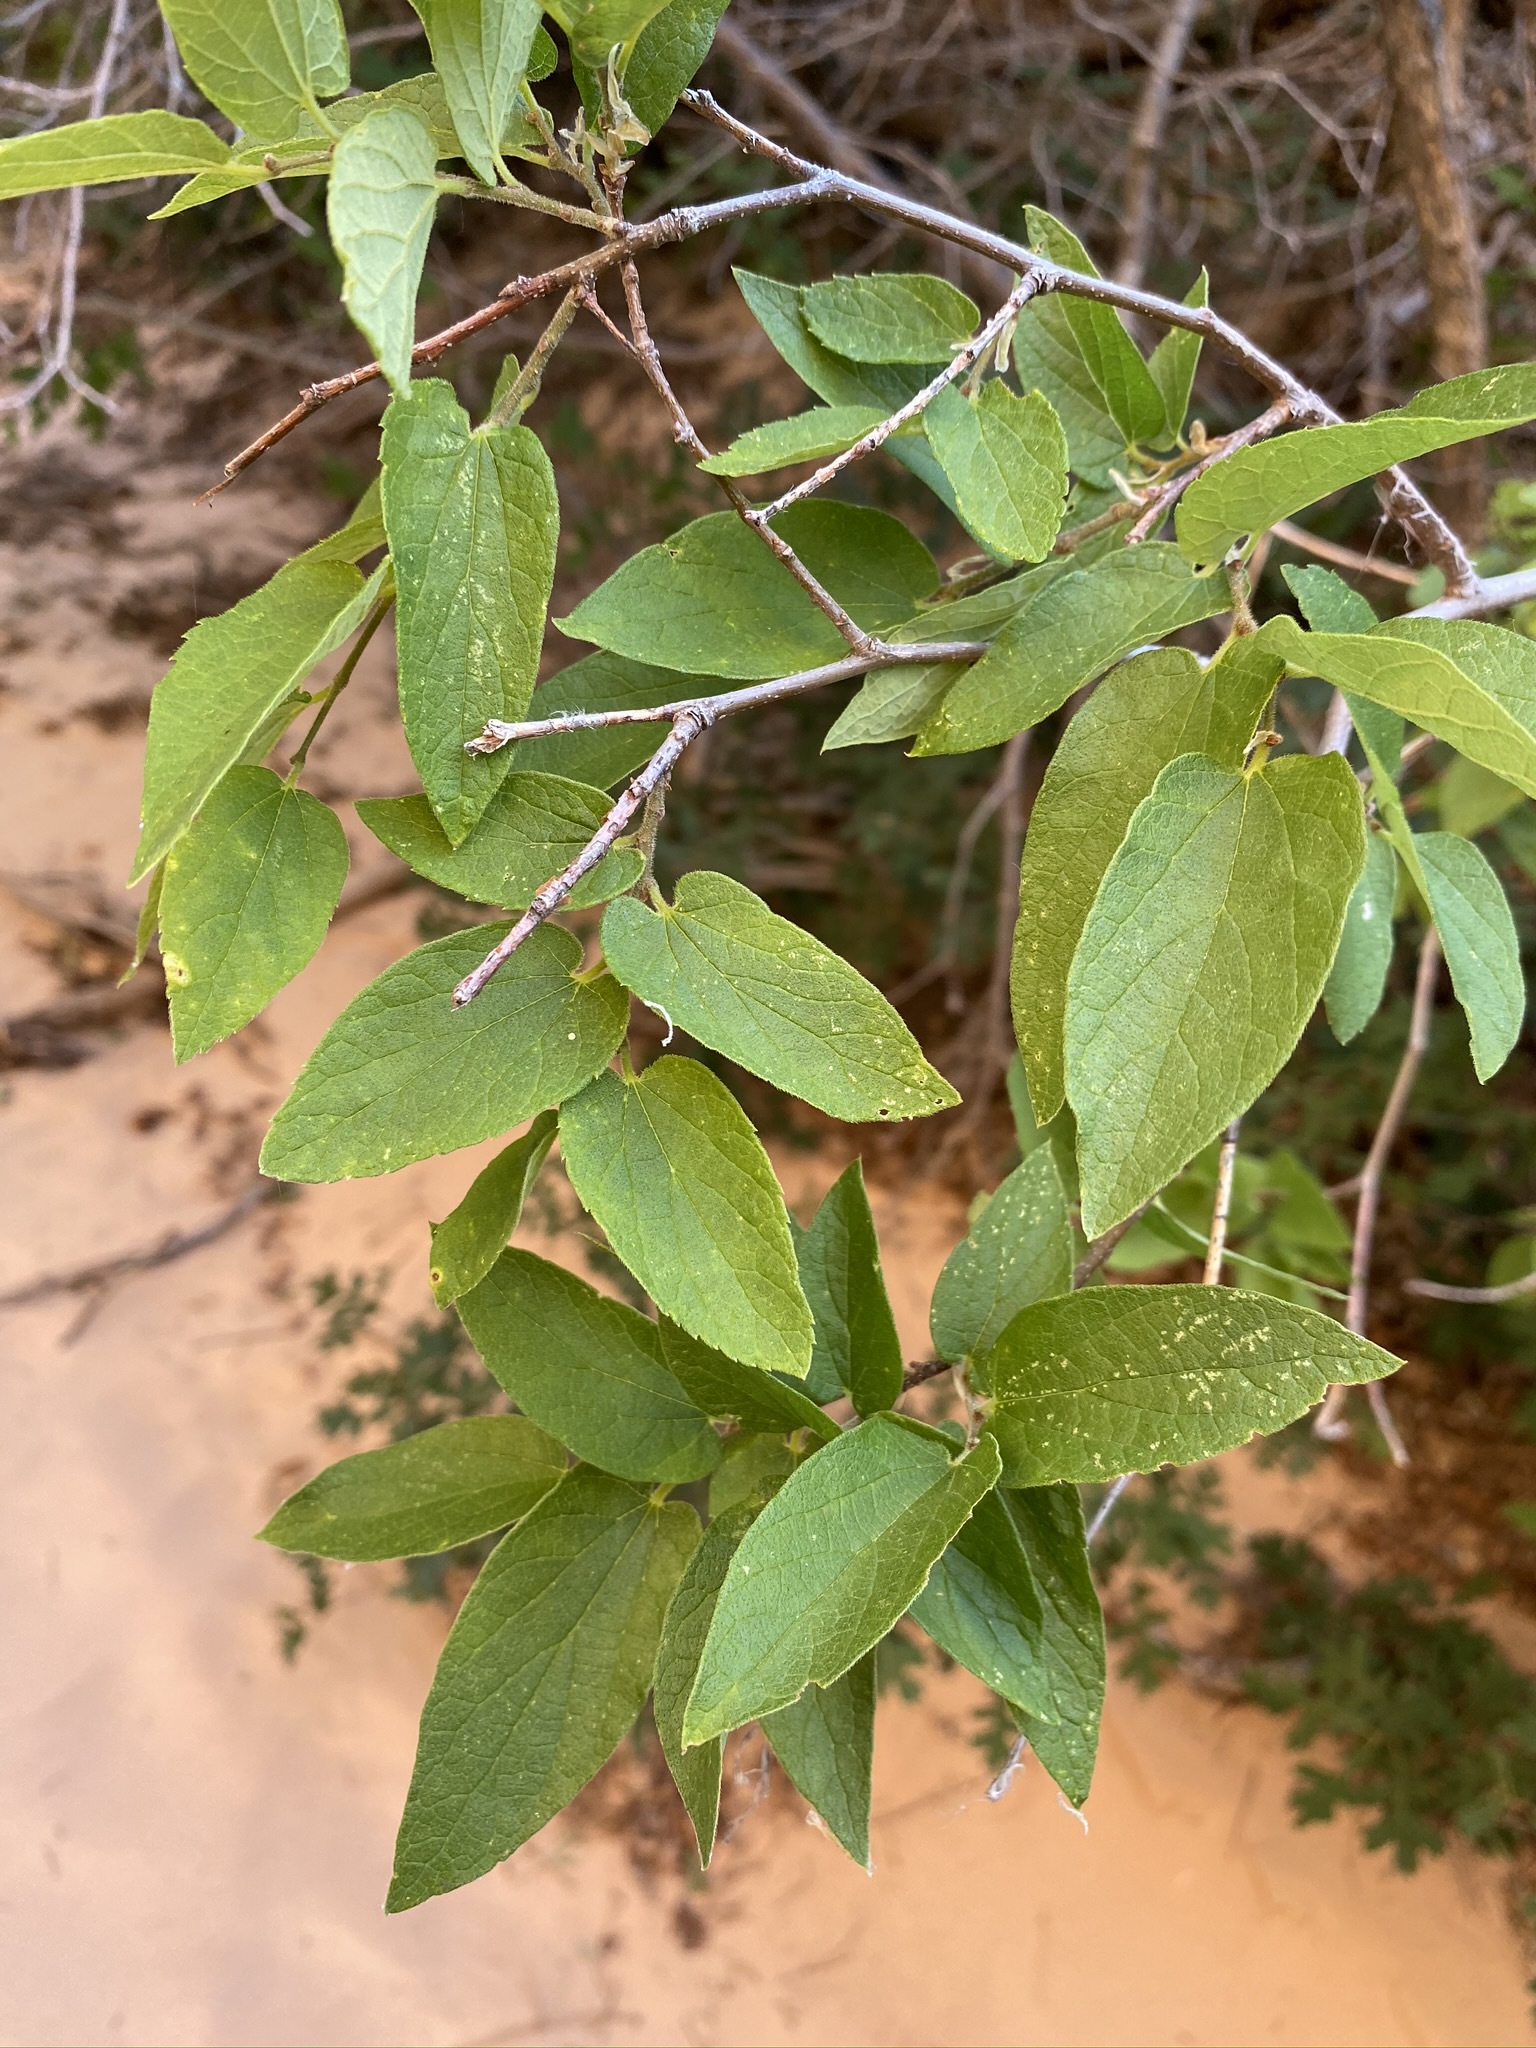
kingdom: Plantae
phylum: Tracheophyta
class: Magnoliopsida
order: Rosales
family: Cannabaceae
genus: Celtis
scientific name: Celtis reticulata
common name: Netleaf hackberry
